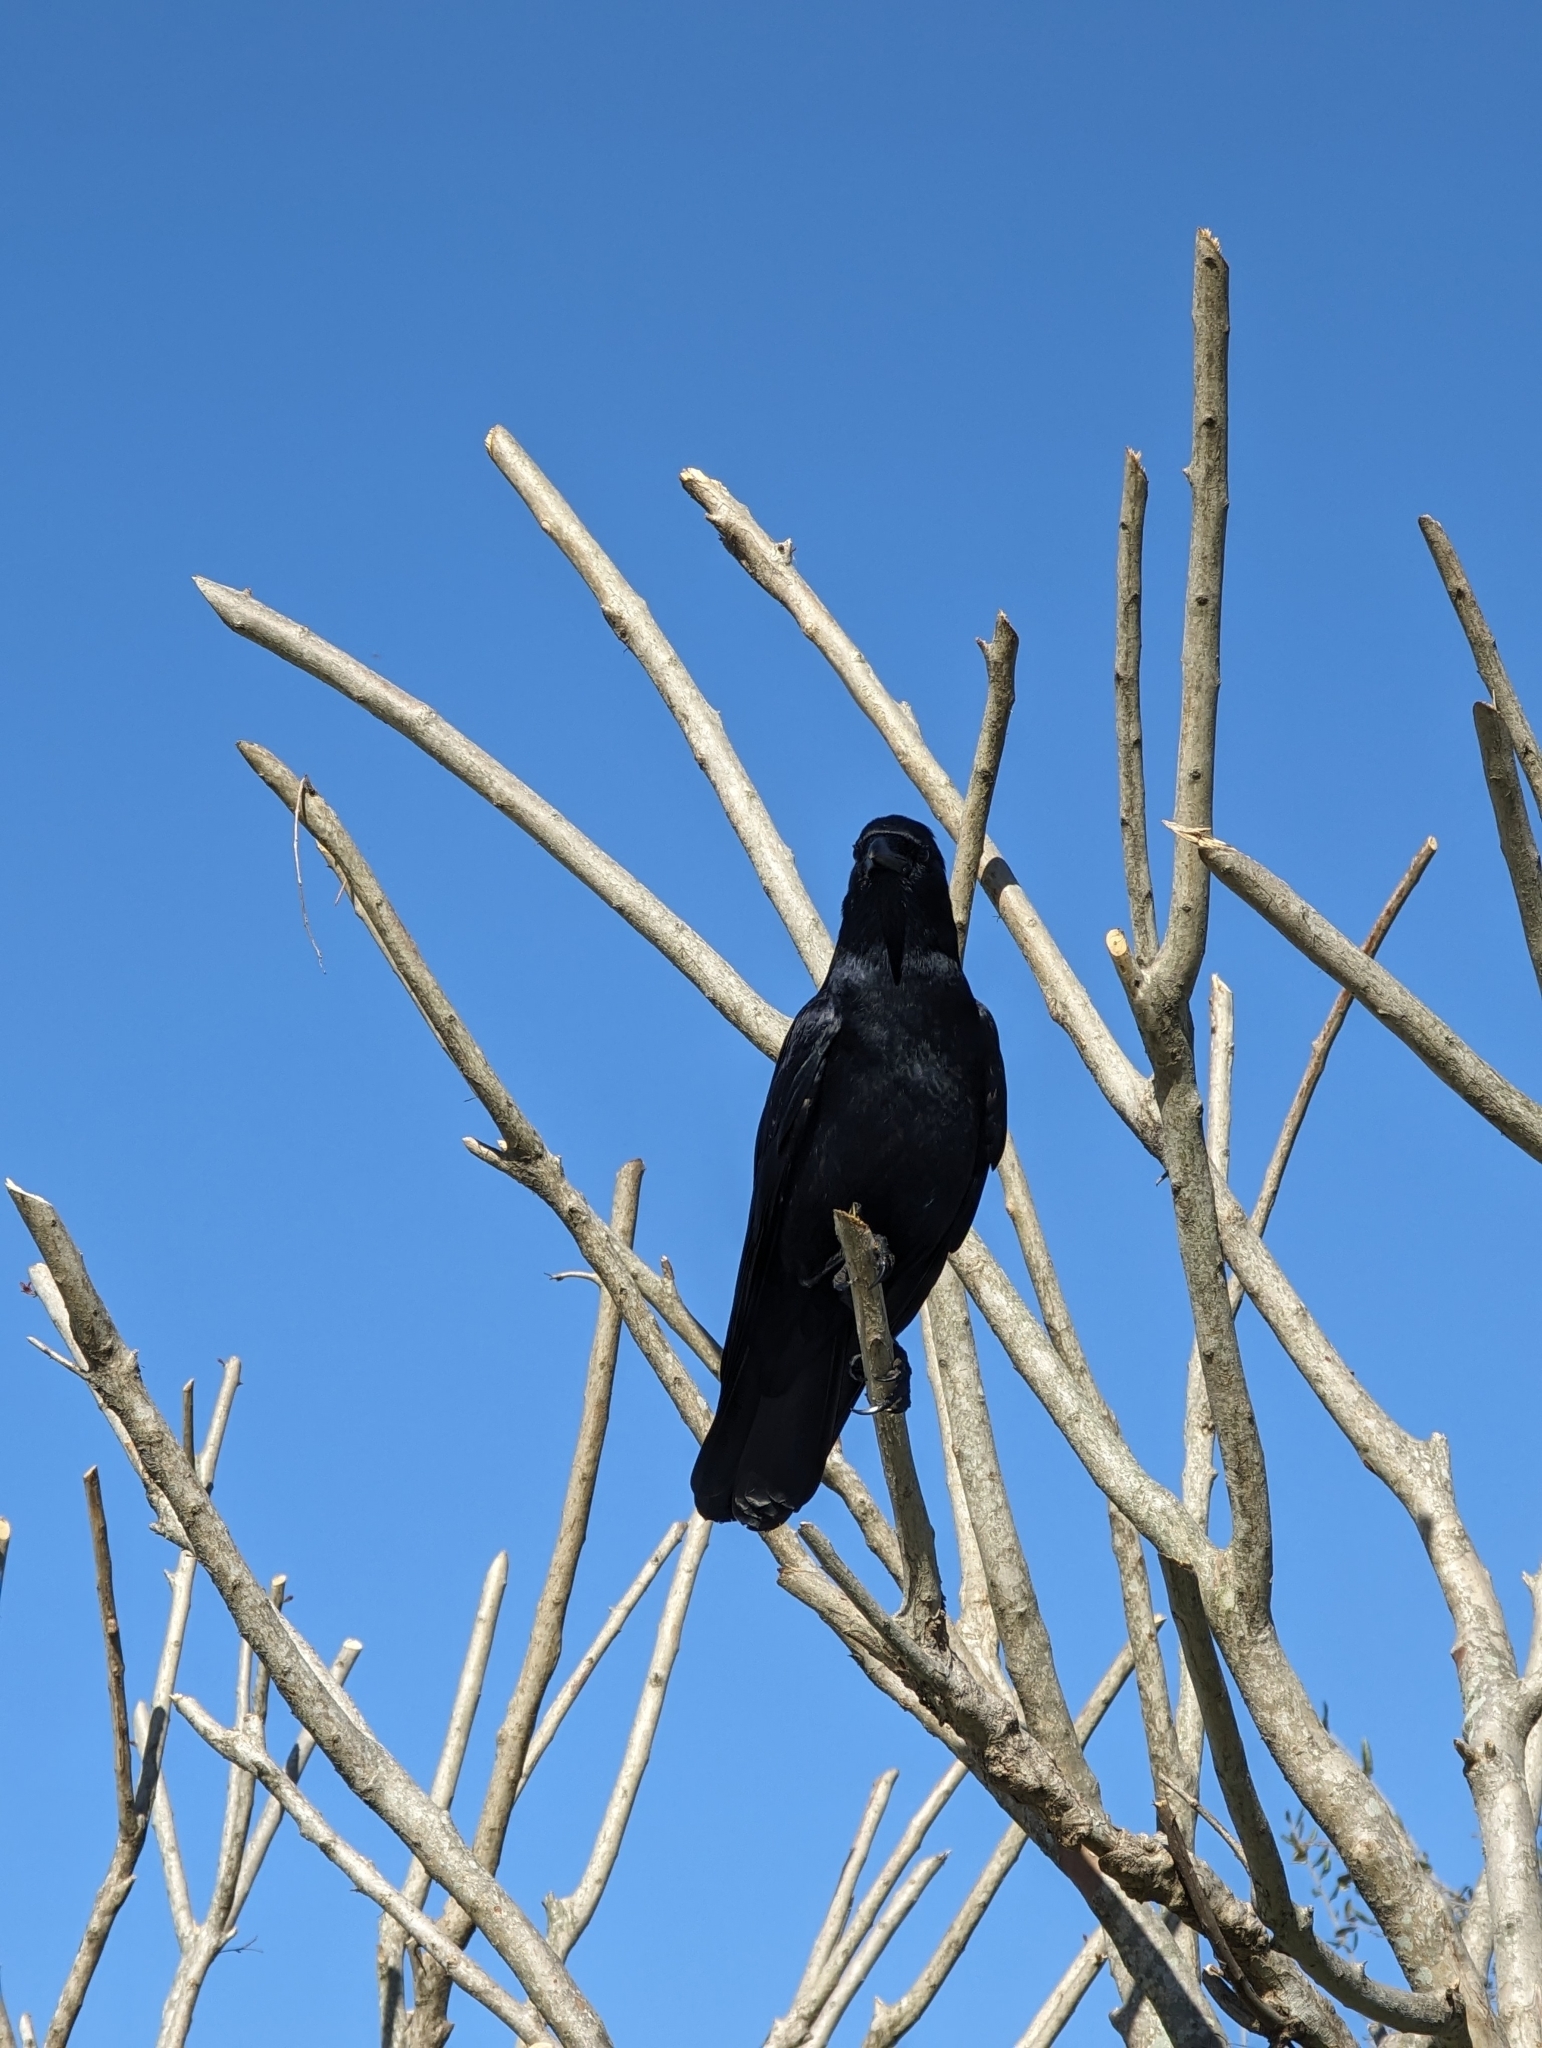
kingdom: Animalia
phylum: Chordata
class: Aves
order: Passeriformes
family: Corvidae
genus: Corvus
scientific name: Corvus ossifragus
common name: Fish crow
